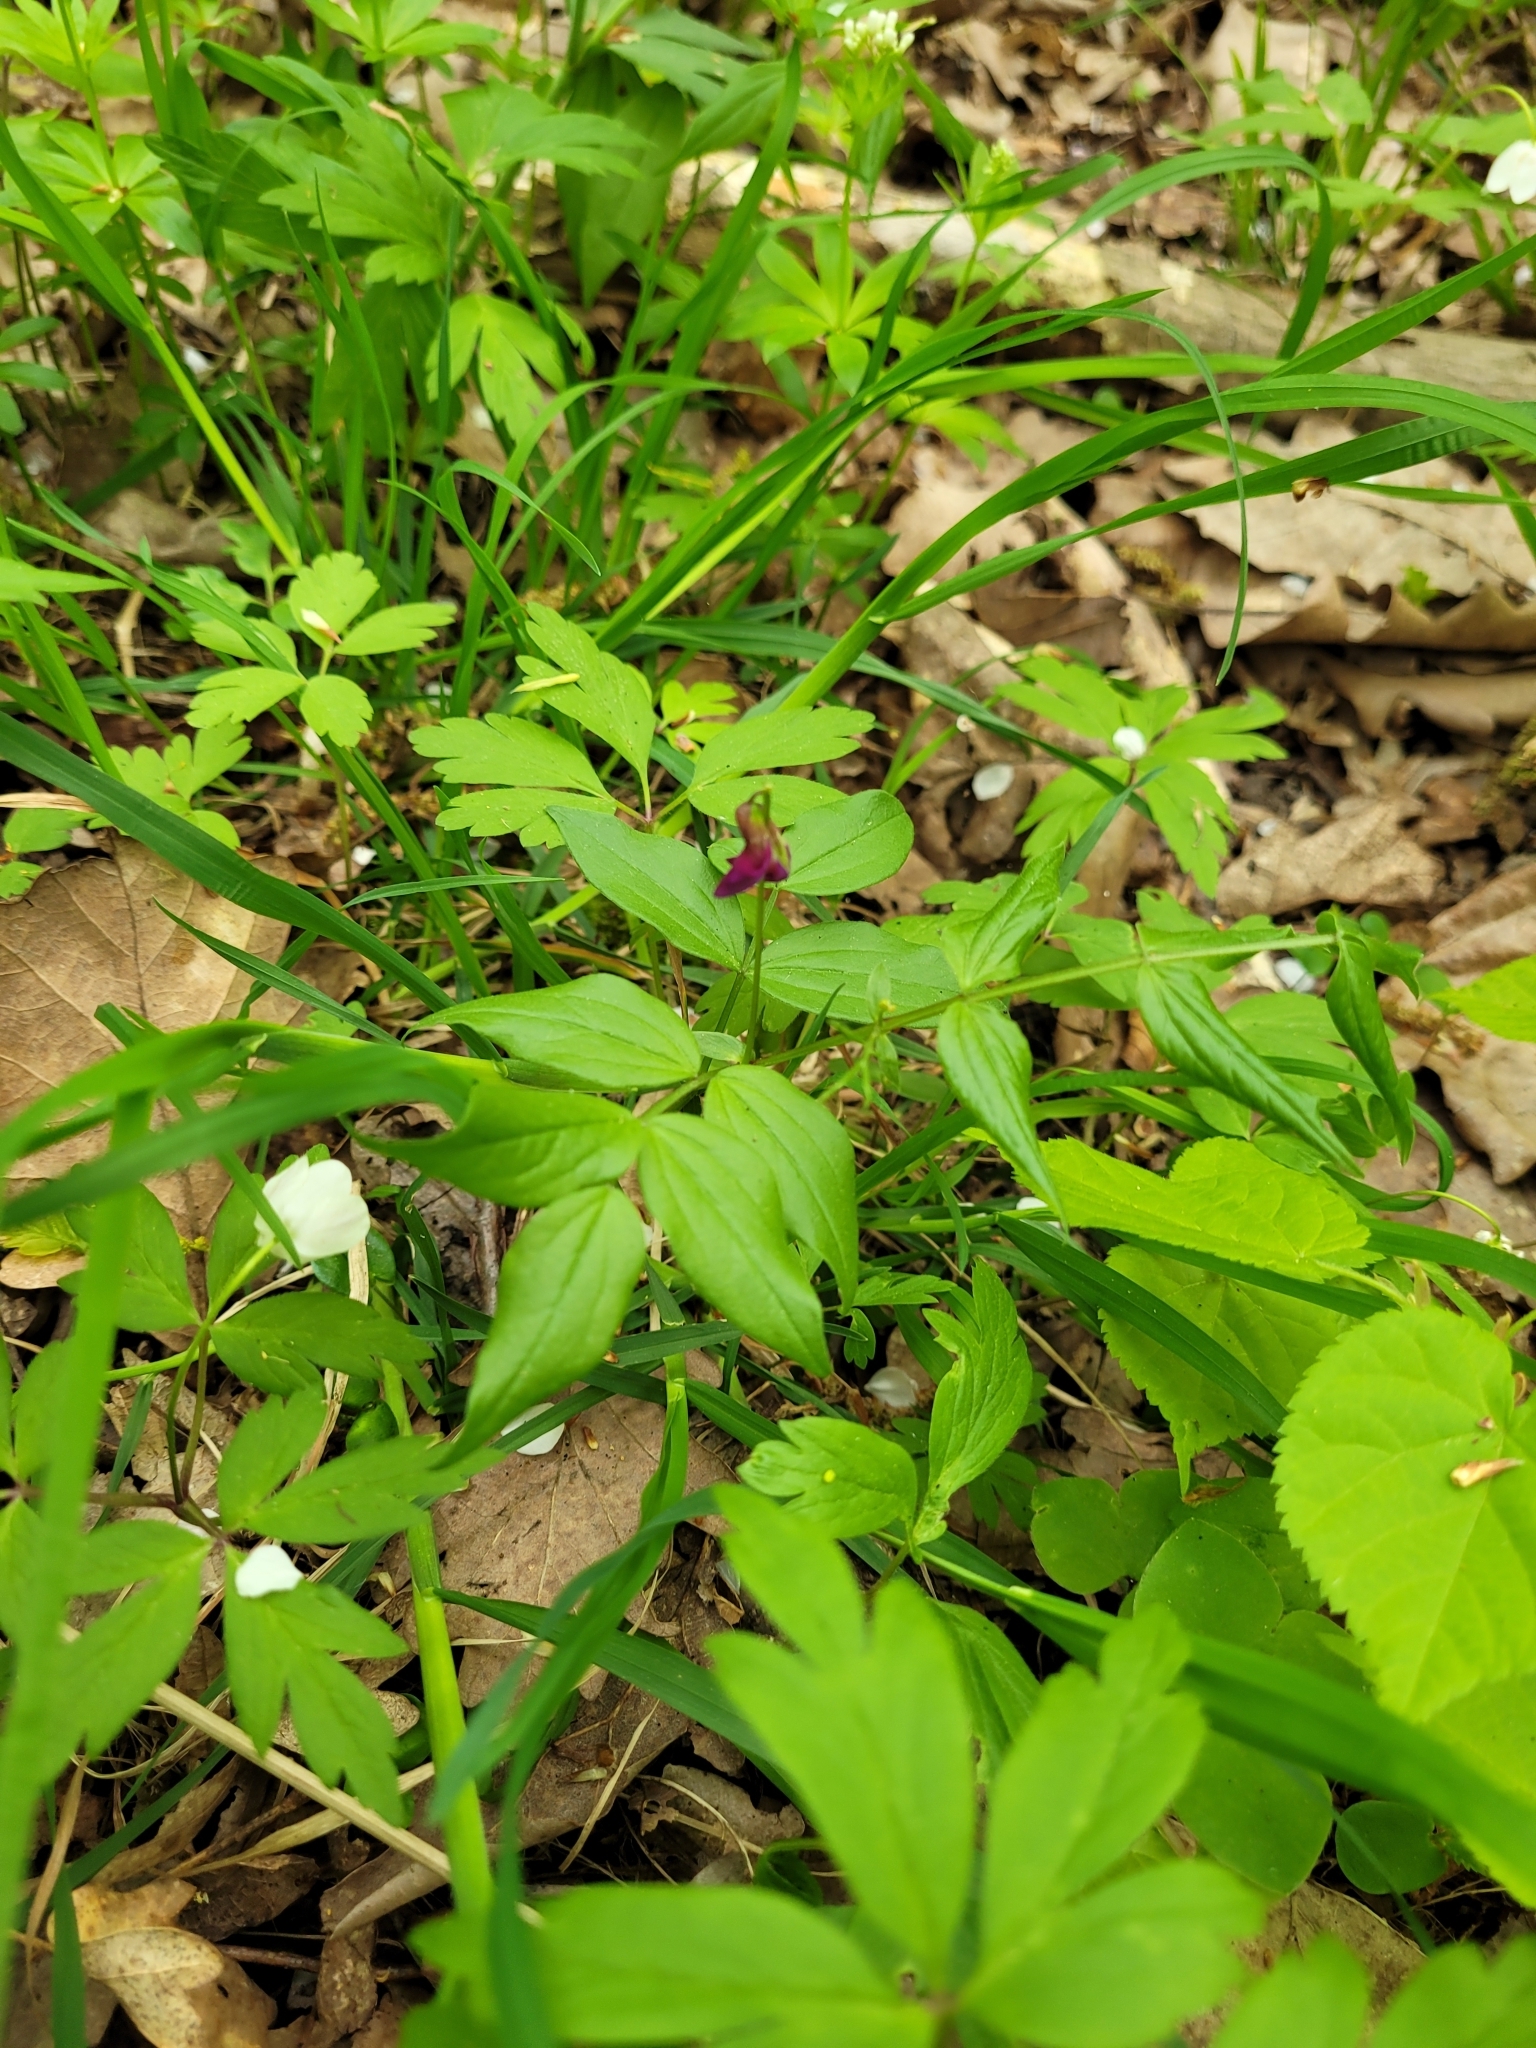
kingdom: Plantae
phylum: Tracheophyta
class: Magnoliopsida
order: Fabales
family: Fabaceae
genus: Lathyrus
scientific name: Lathyrus vernus
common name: Spring pea
